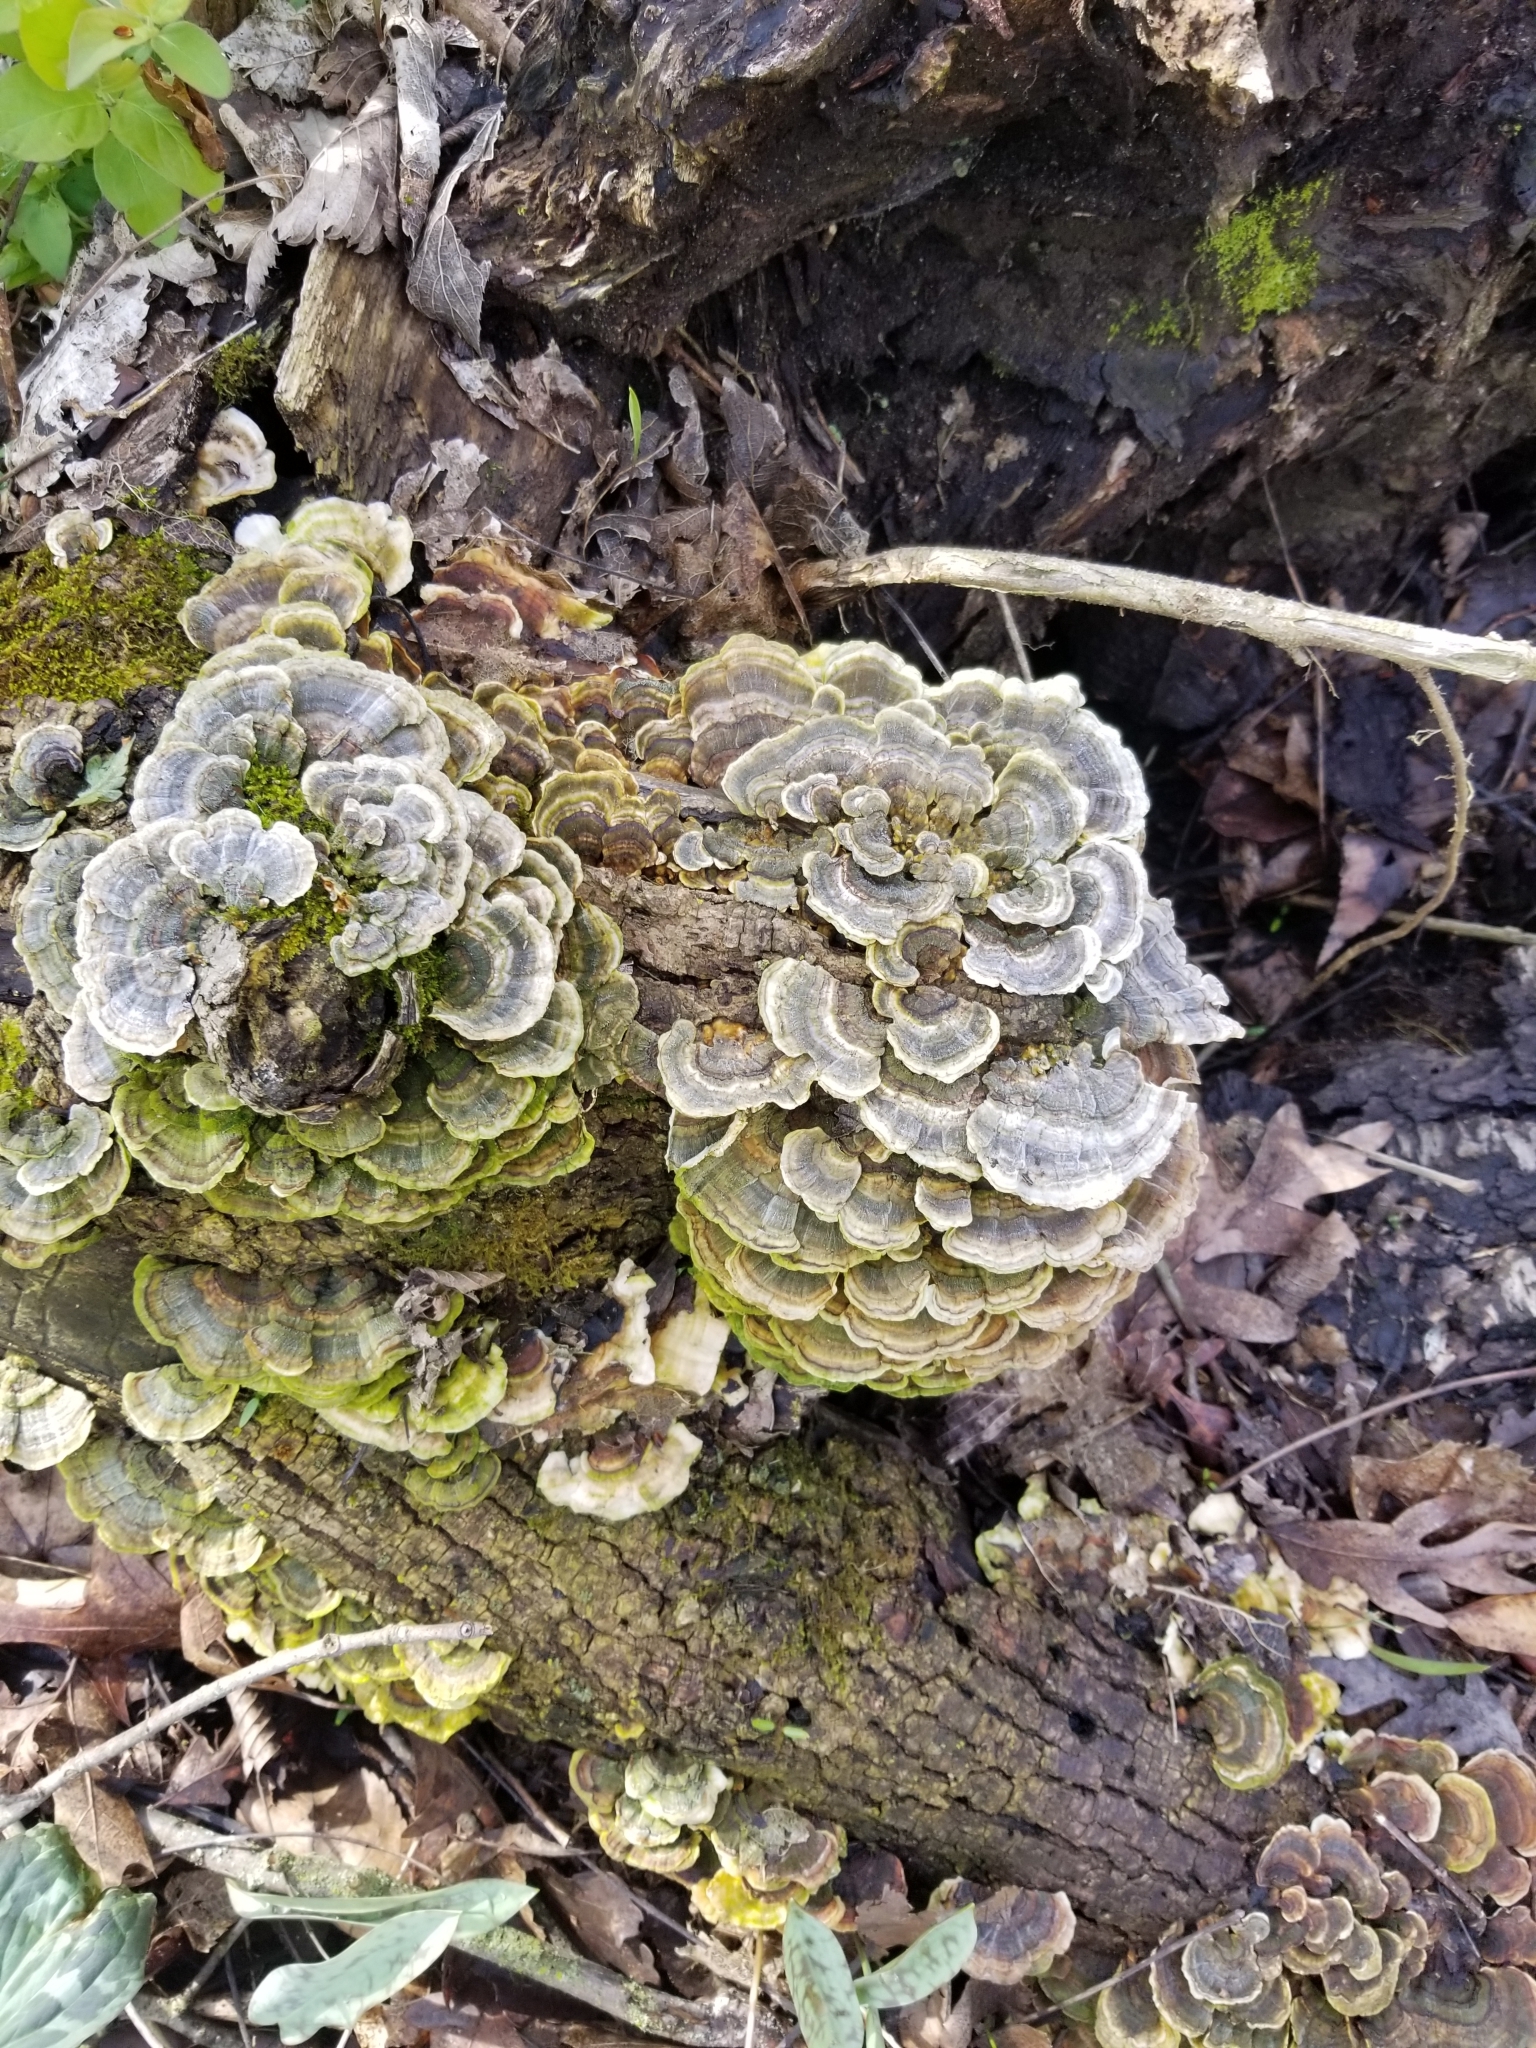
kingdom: Fungi
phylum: Basidiomycota
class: Agaricomycetes
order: Polyporales
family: Polyporaceae
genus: Trametes
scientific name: Trametes versicolor
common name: Turkeytail
